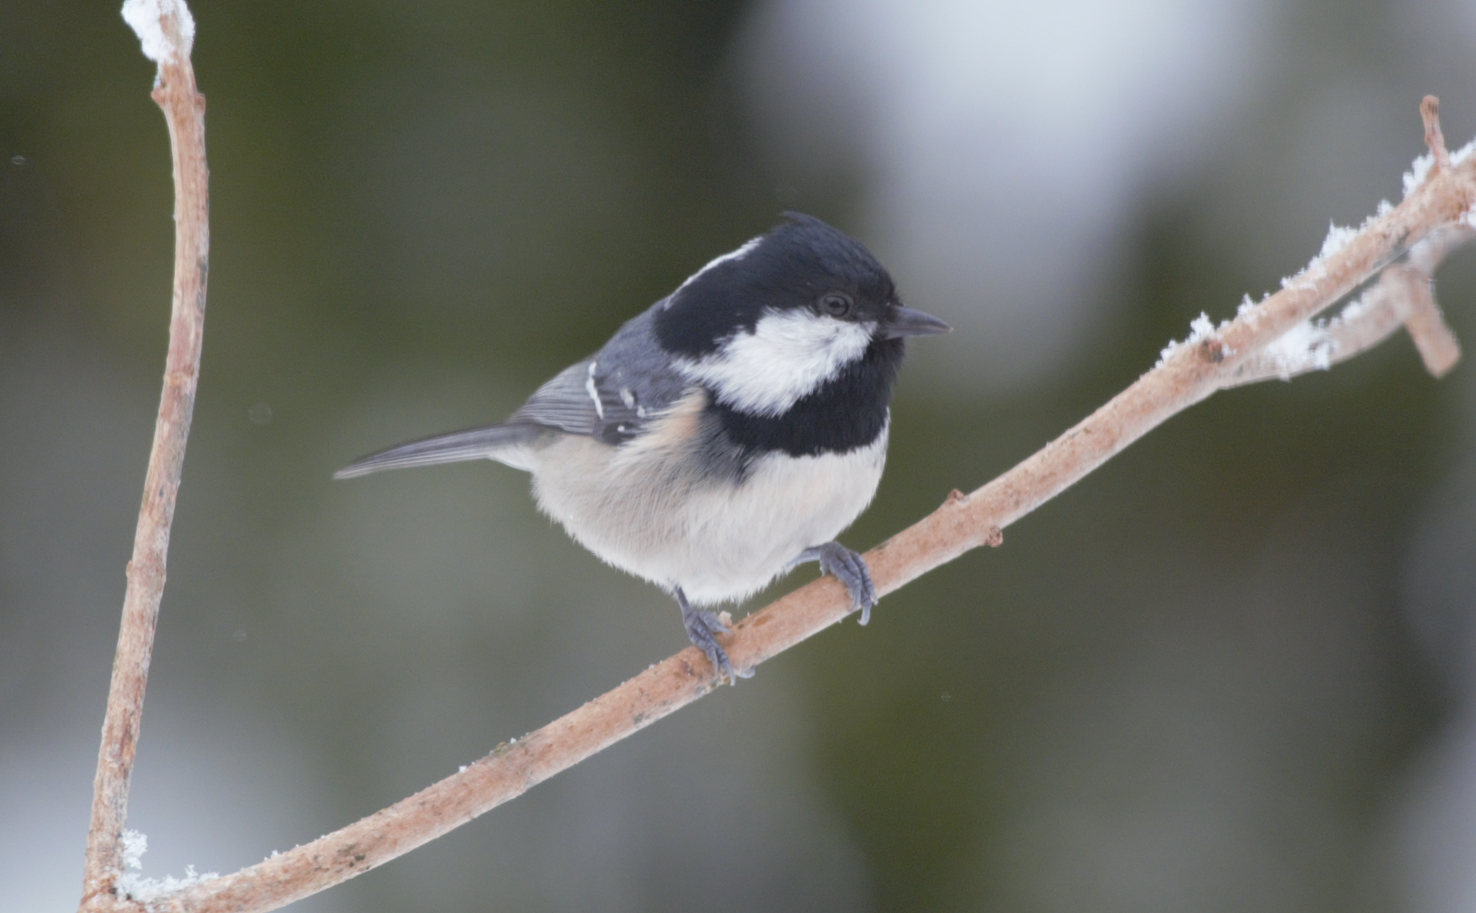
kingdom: Animalia
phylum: Chordata
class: Aves
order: Passeriformes
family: Paridae
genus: Periparus
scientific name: Periparus ater
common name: Coal tit
